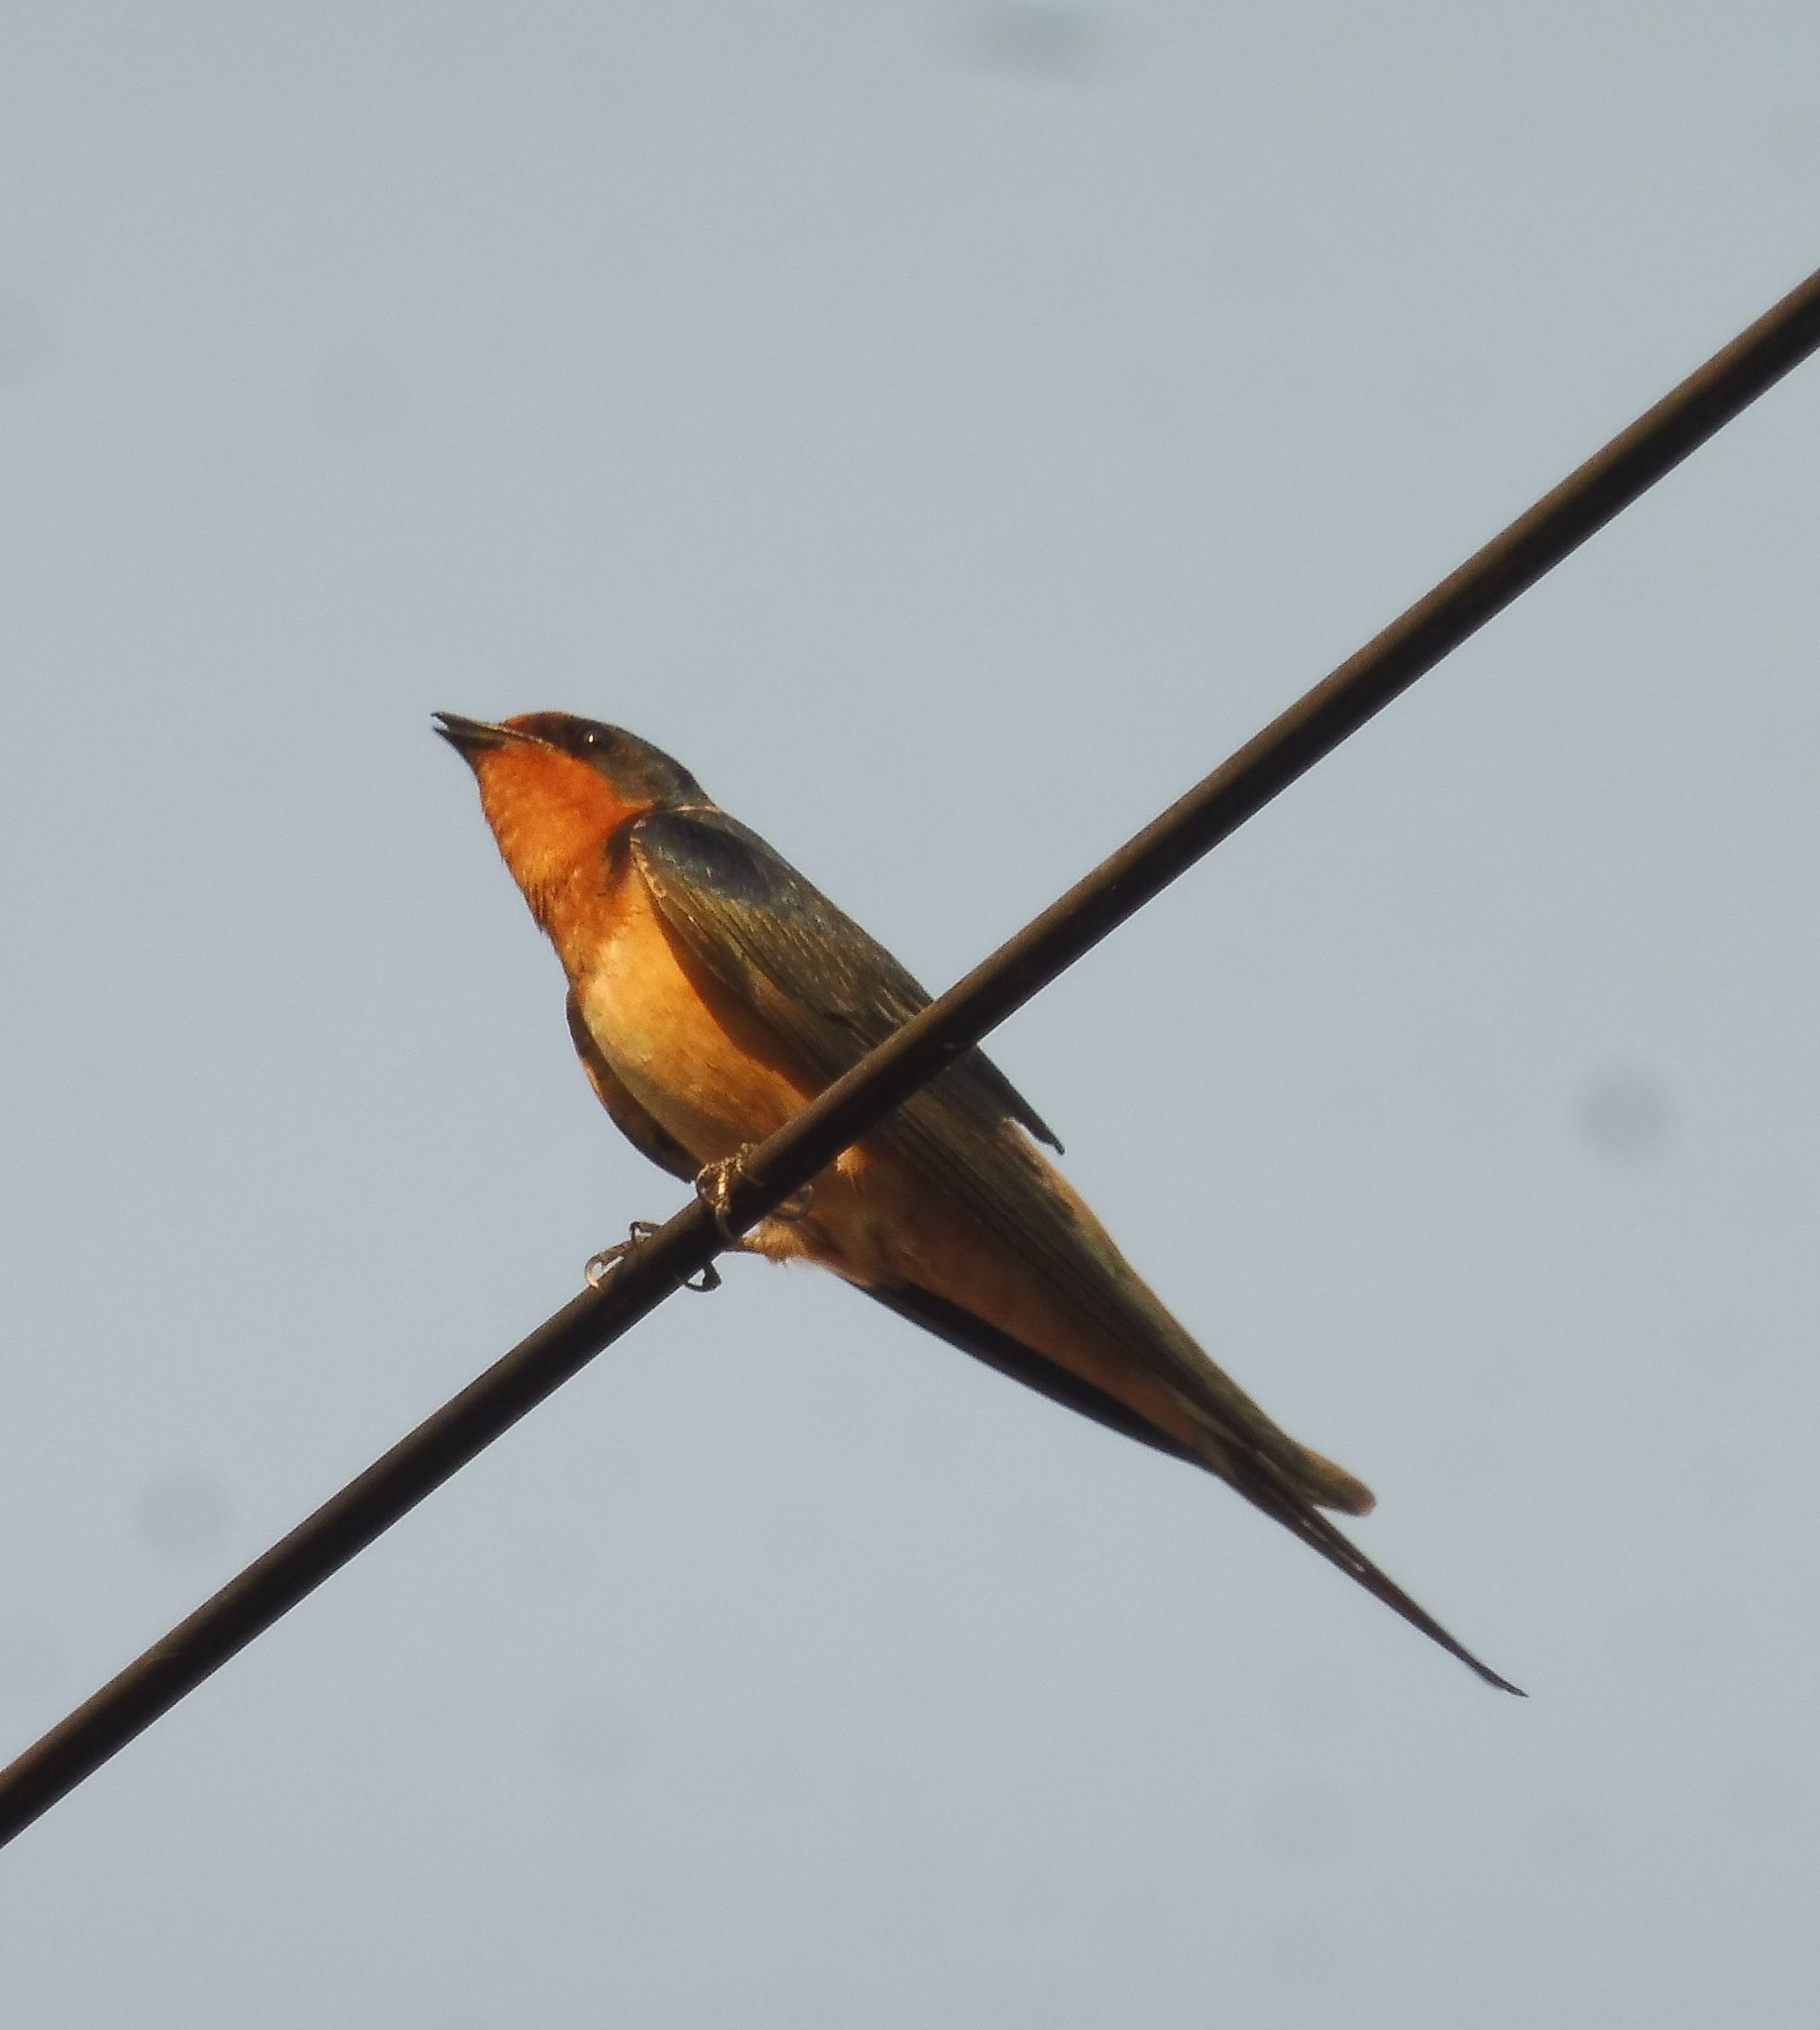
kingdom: Animalia
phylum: Chordata
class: Aves
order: Passeriformes
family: Hirundinidae
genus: Hirundo
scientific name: Hirundo rustica
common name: Barn swallow
